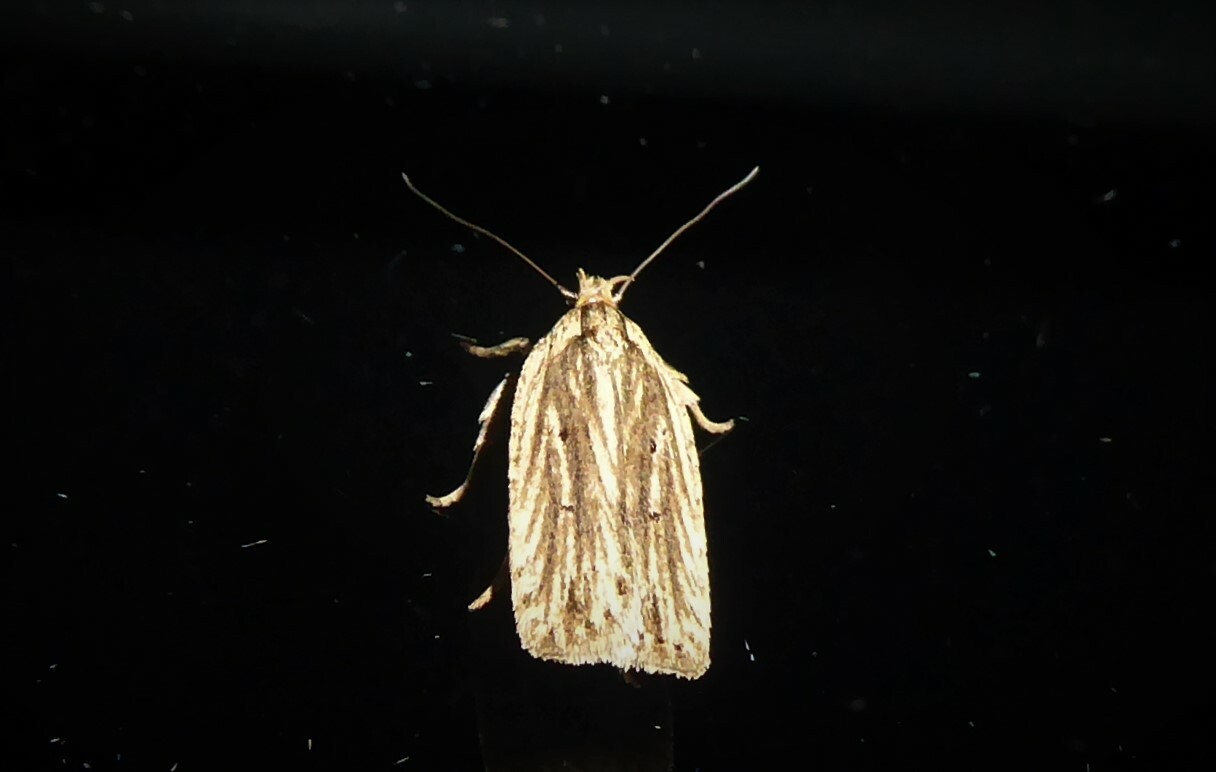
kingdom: Animalia
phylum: Arthropoda
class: Insecta
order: Lepidoptera
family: Depressariidae
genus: Agonopterix
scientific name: Agonopterix
